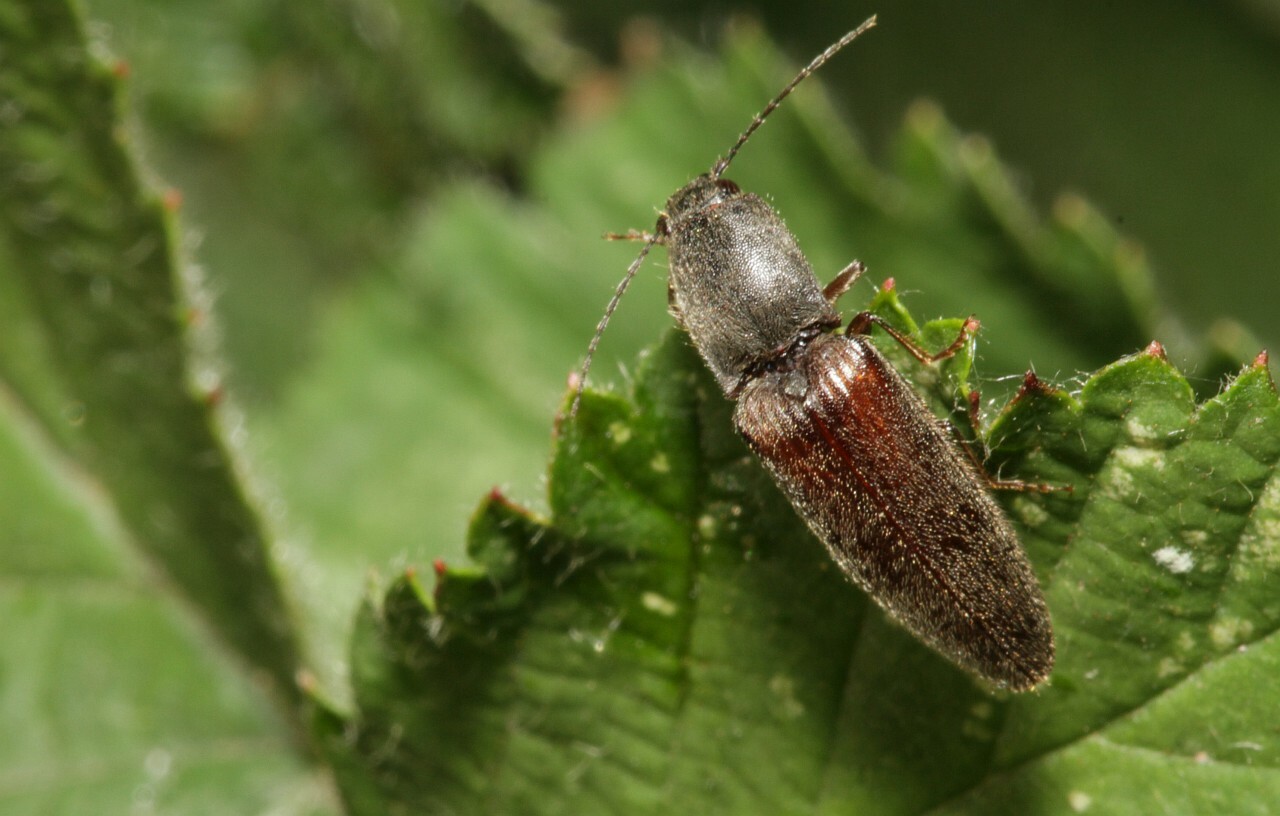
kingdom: Animalia
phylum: Arthropoda
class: Insecta
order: Coleoptera
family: Elateridae
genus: Athous
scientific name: Athous haemorrhoidalis
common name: Red-brown click beetle
